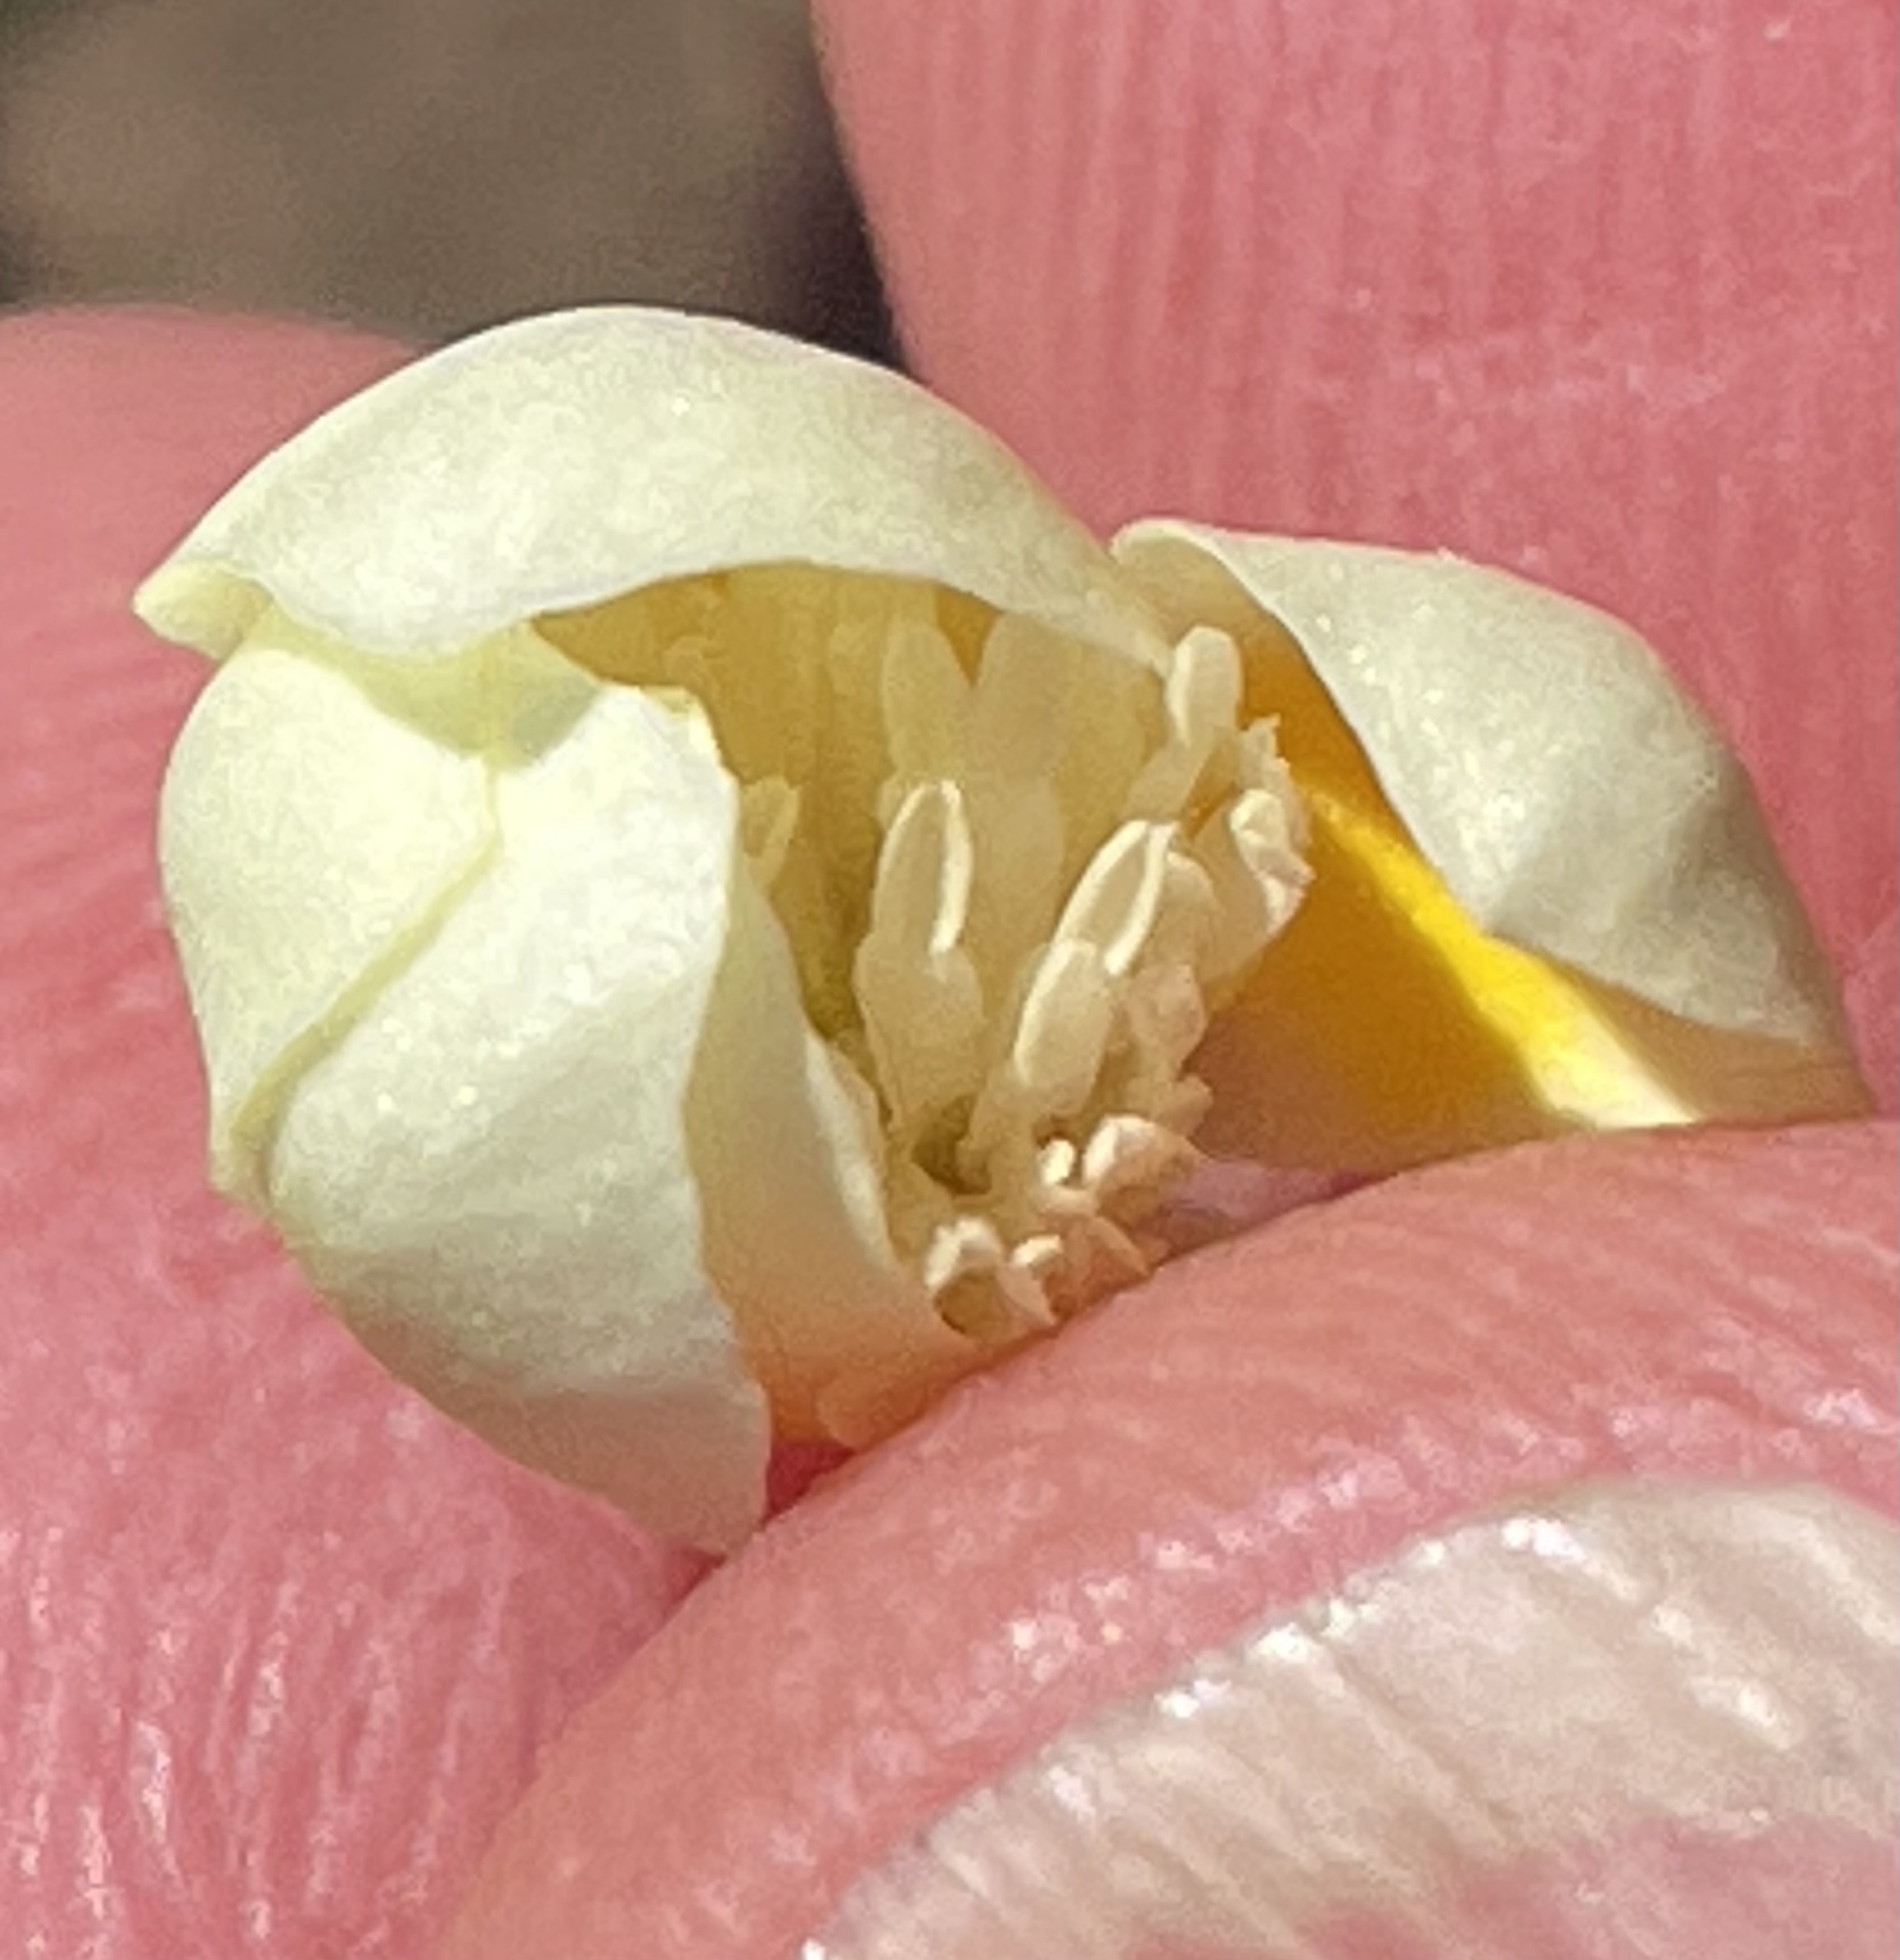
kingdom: Plantae
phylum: Tracheophyta
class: Magnoliopsida
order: Ranunculales
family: Papaveraceae
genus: Platystemon
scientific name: Platystemon californicus
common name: Cream-cups
